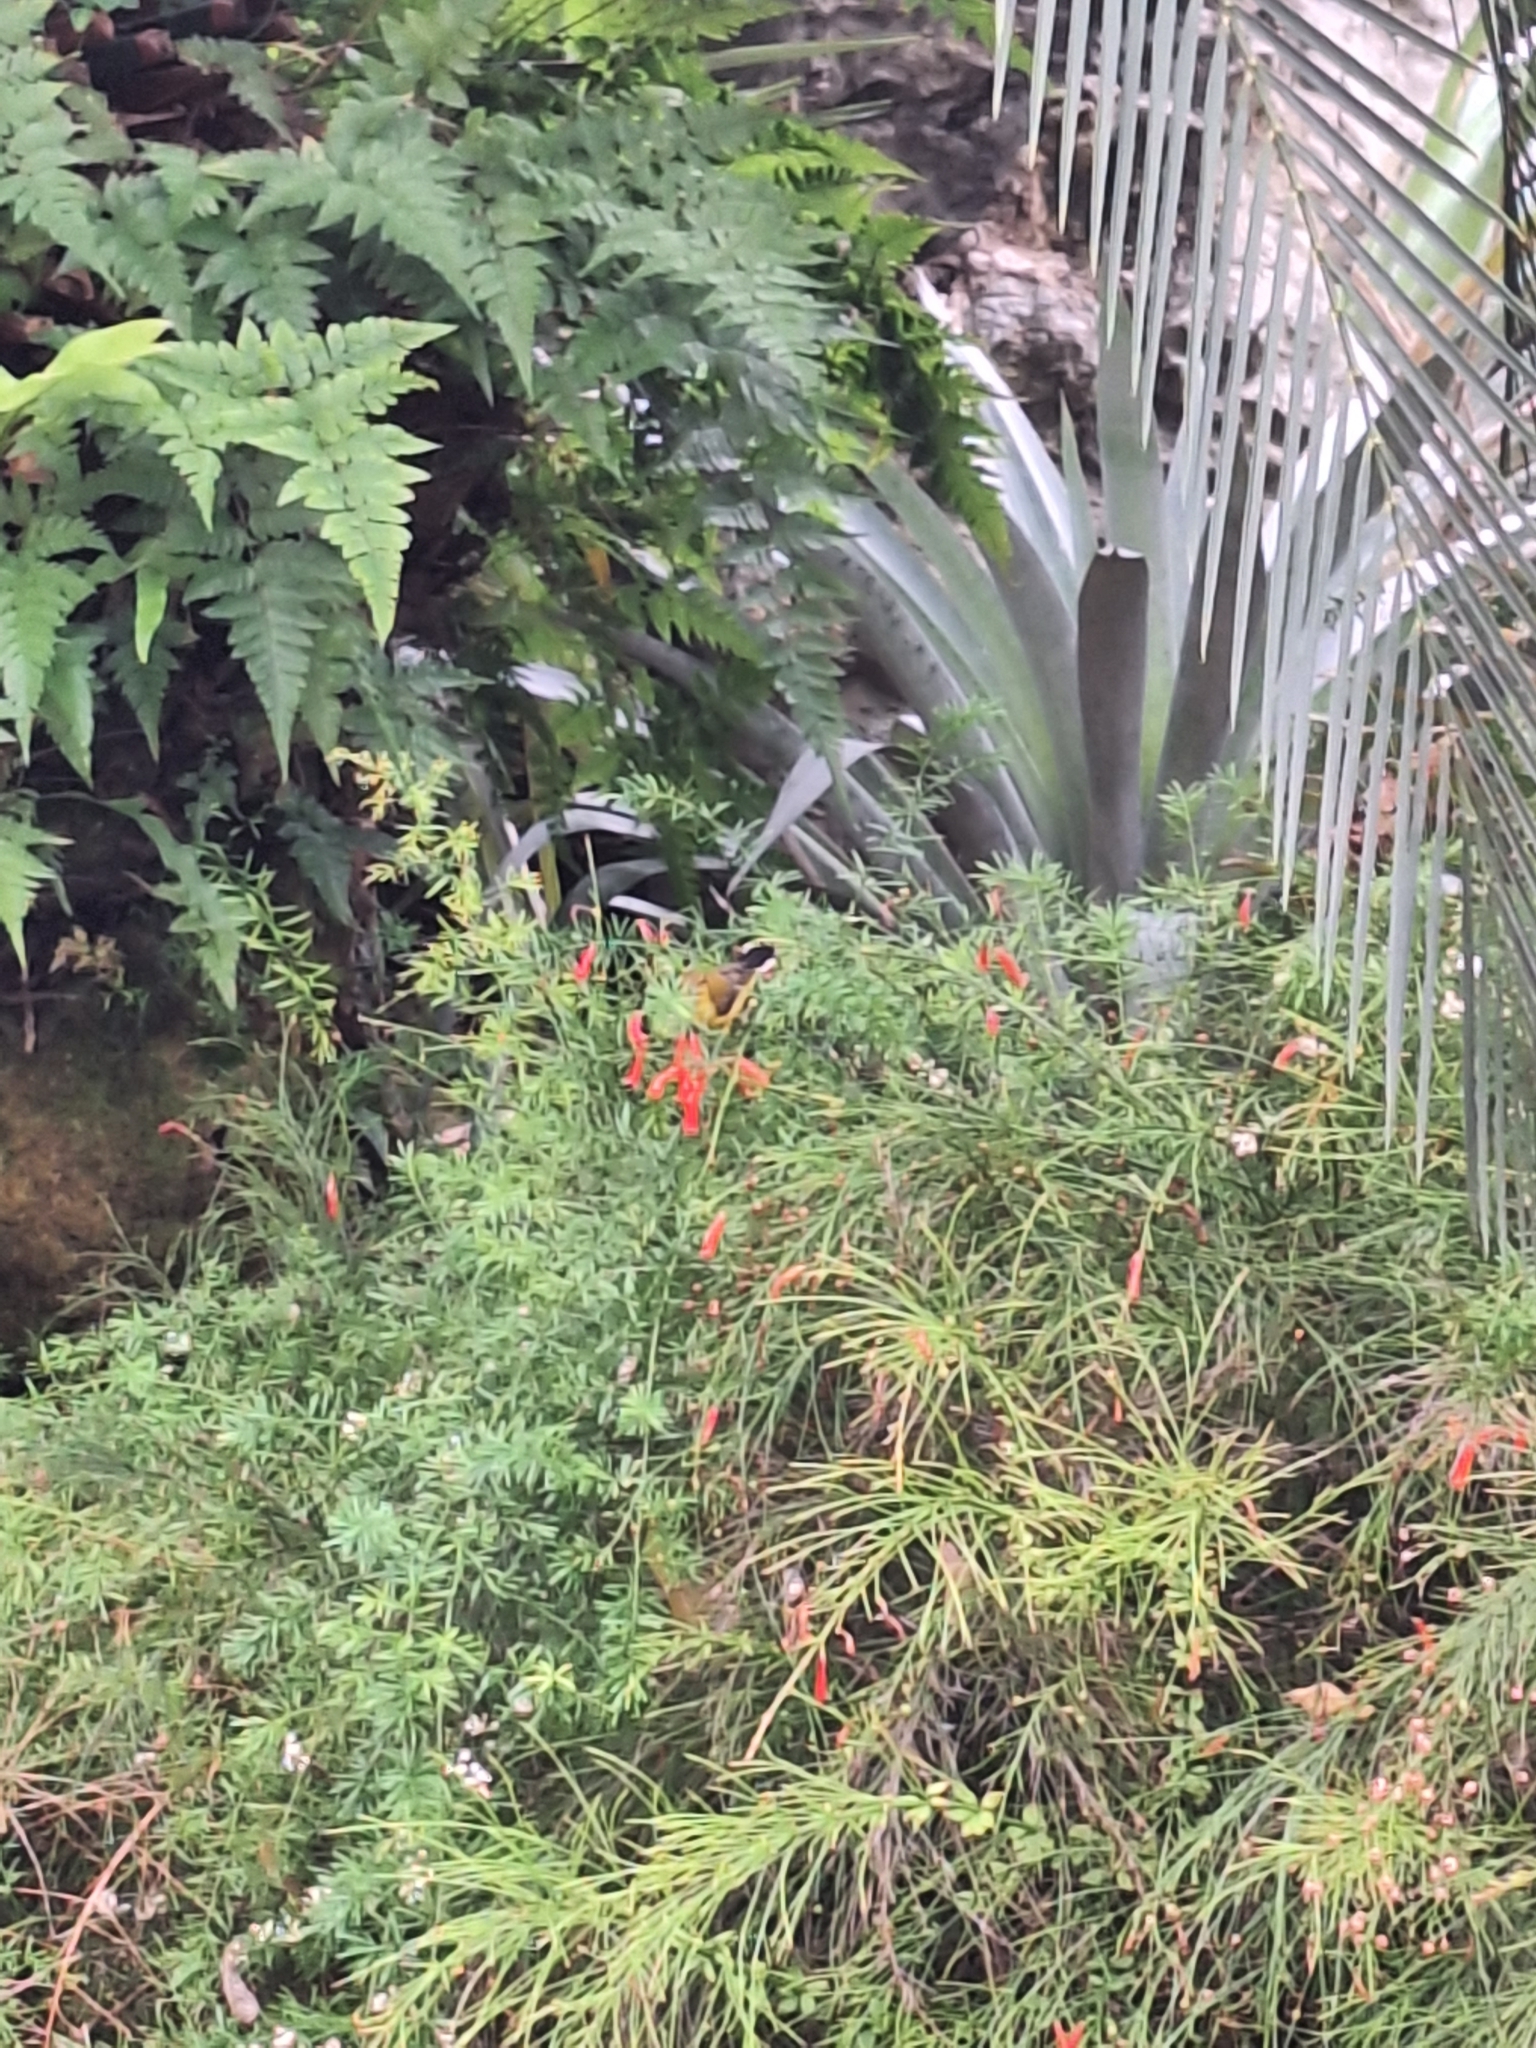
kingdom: Animalia
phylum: Chordata
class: Aves
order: Passeriformes
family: Nectariniidae
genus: Cinnyris
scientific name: Cinnyris
